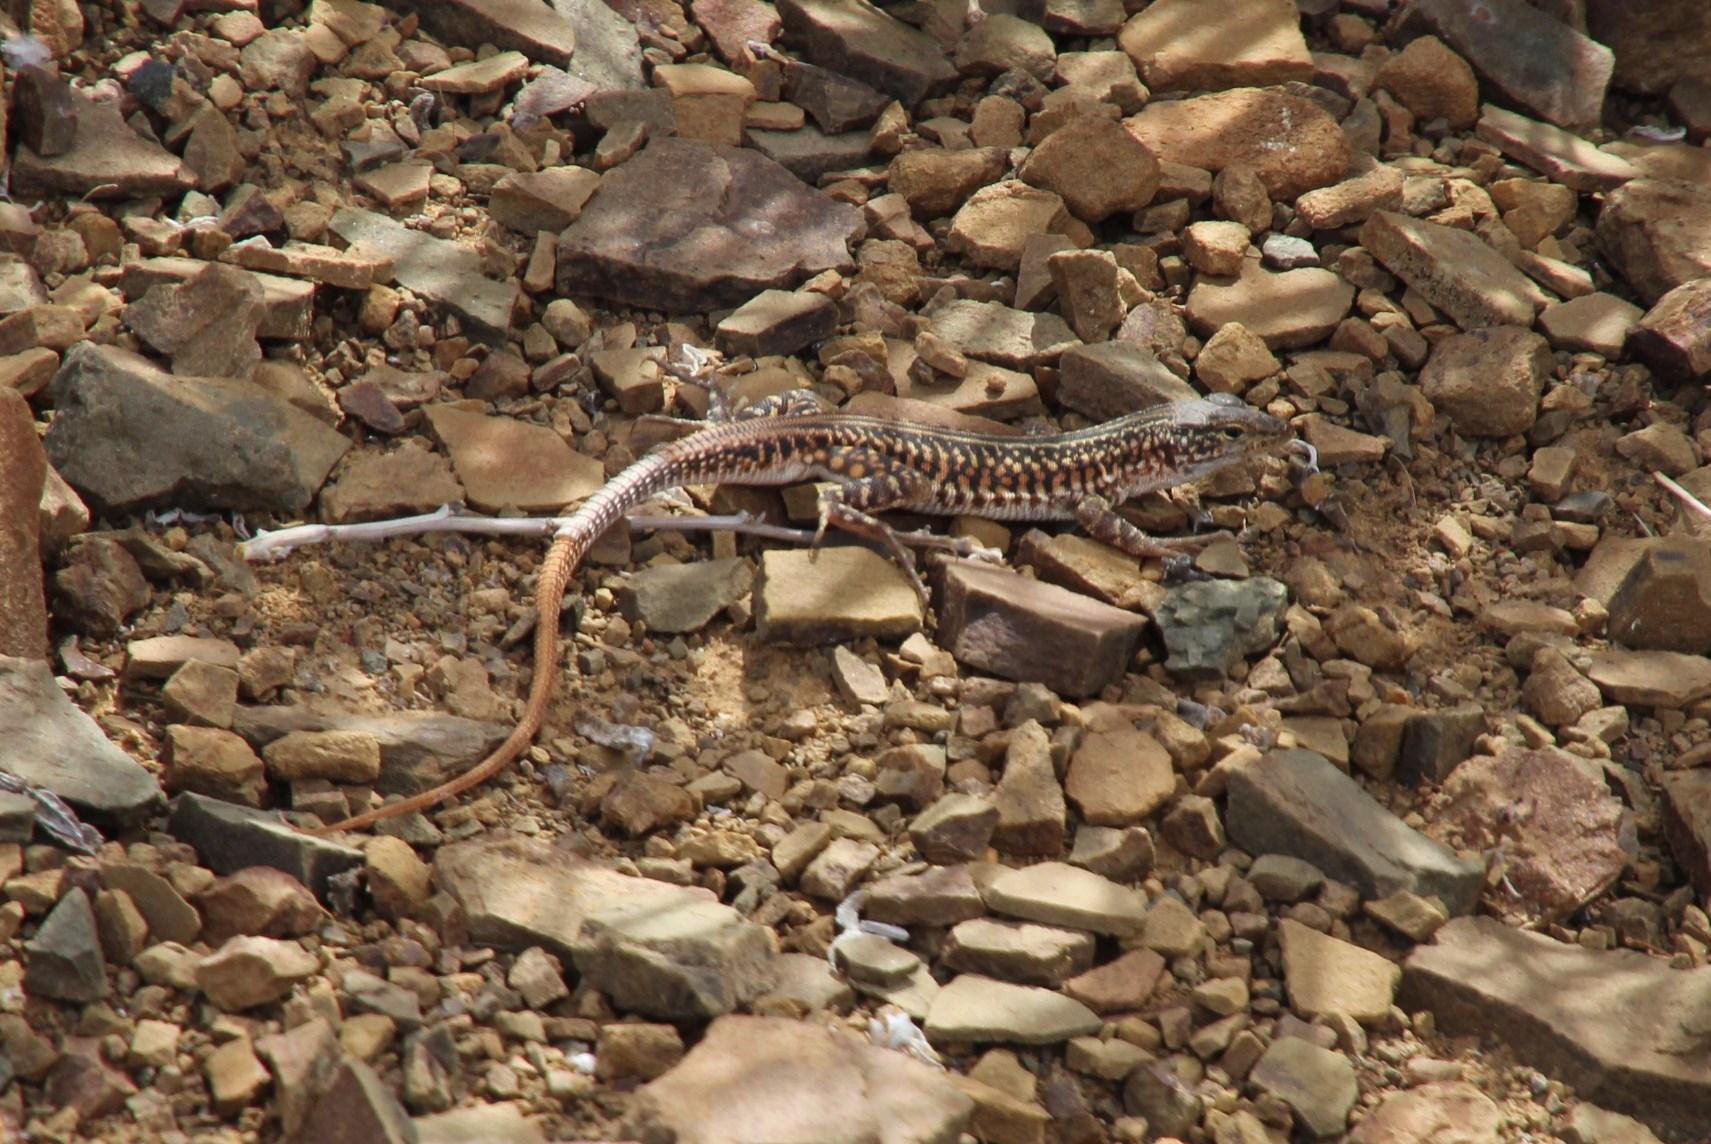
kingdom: Animalia
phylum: Chordata
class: Squamata
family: Lacertidae
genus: Pedioplanis
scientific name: Pedioplanis laticeps
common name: Karoo sand lizard
